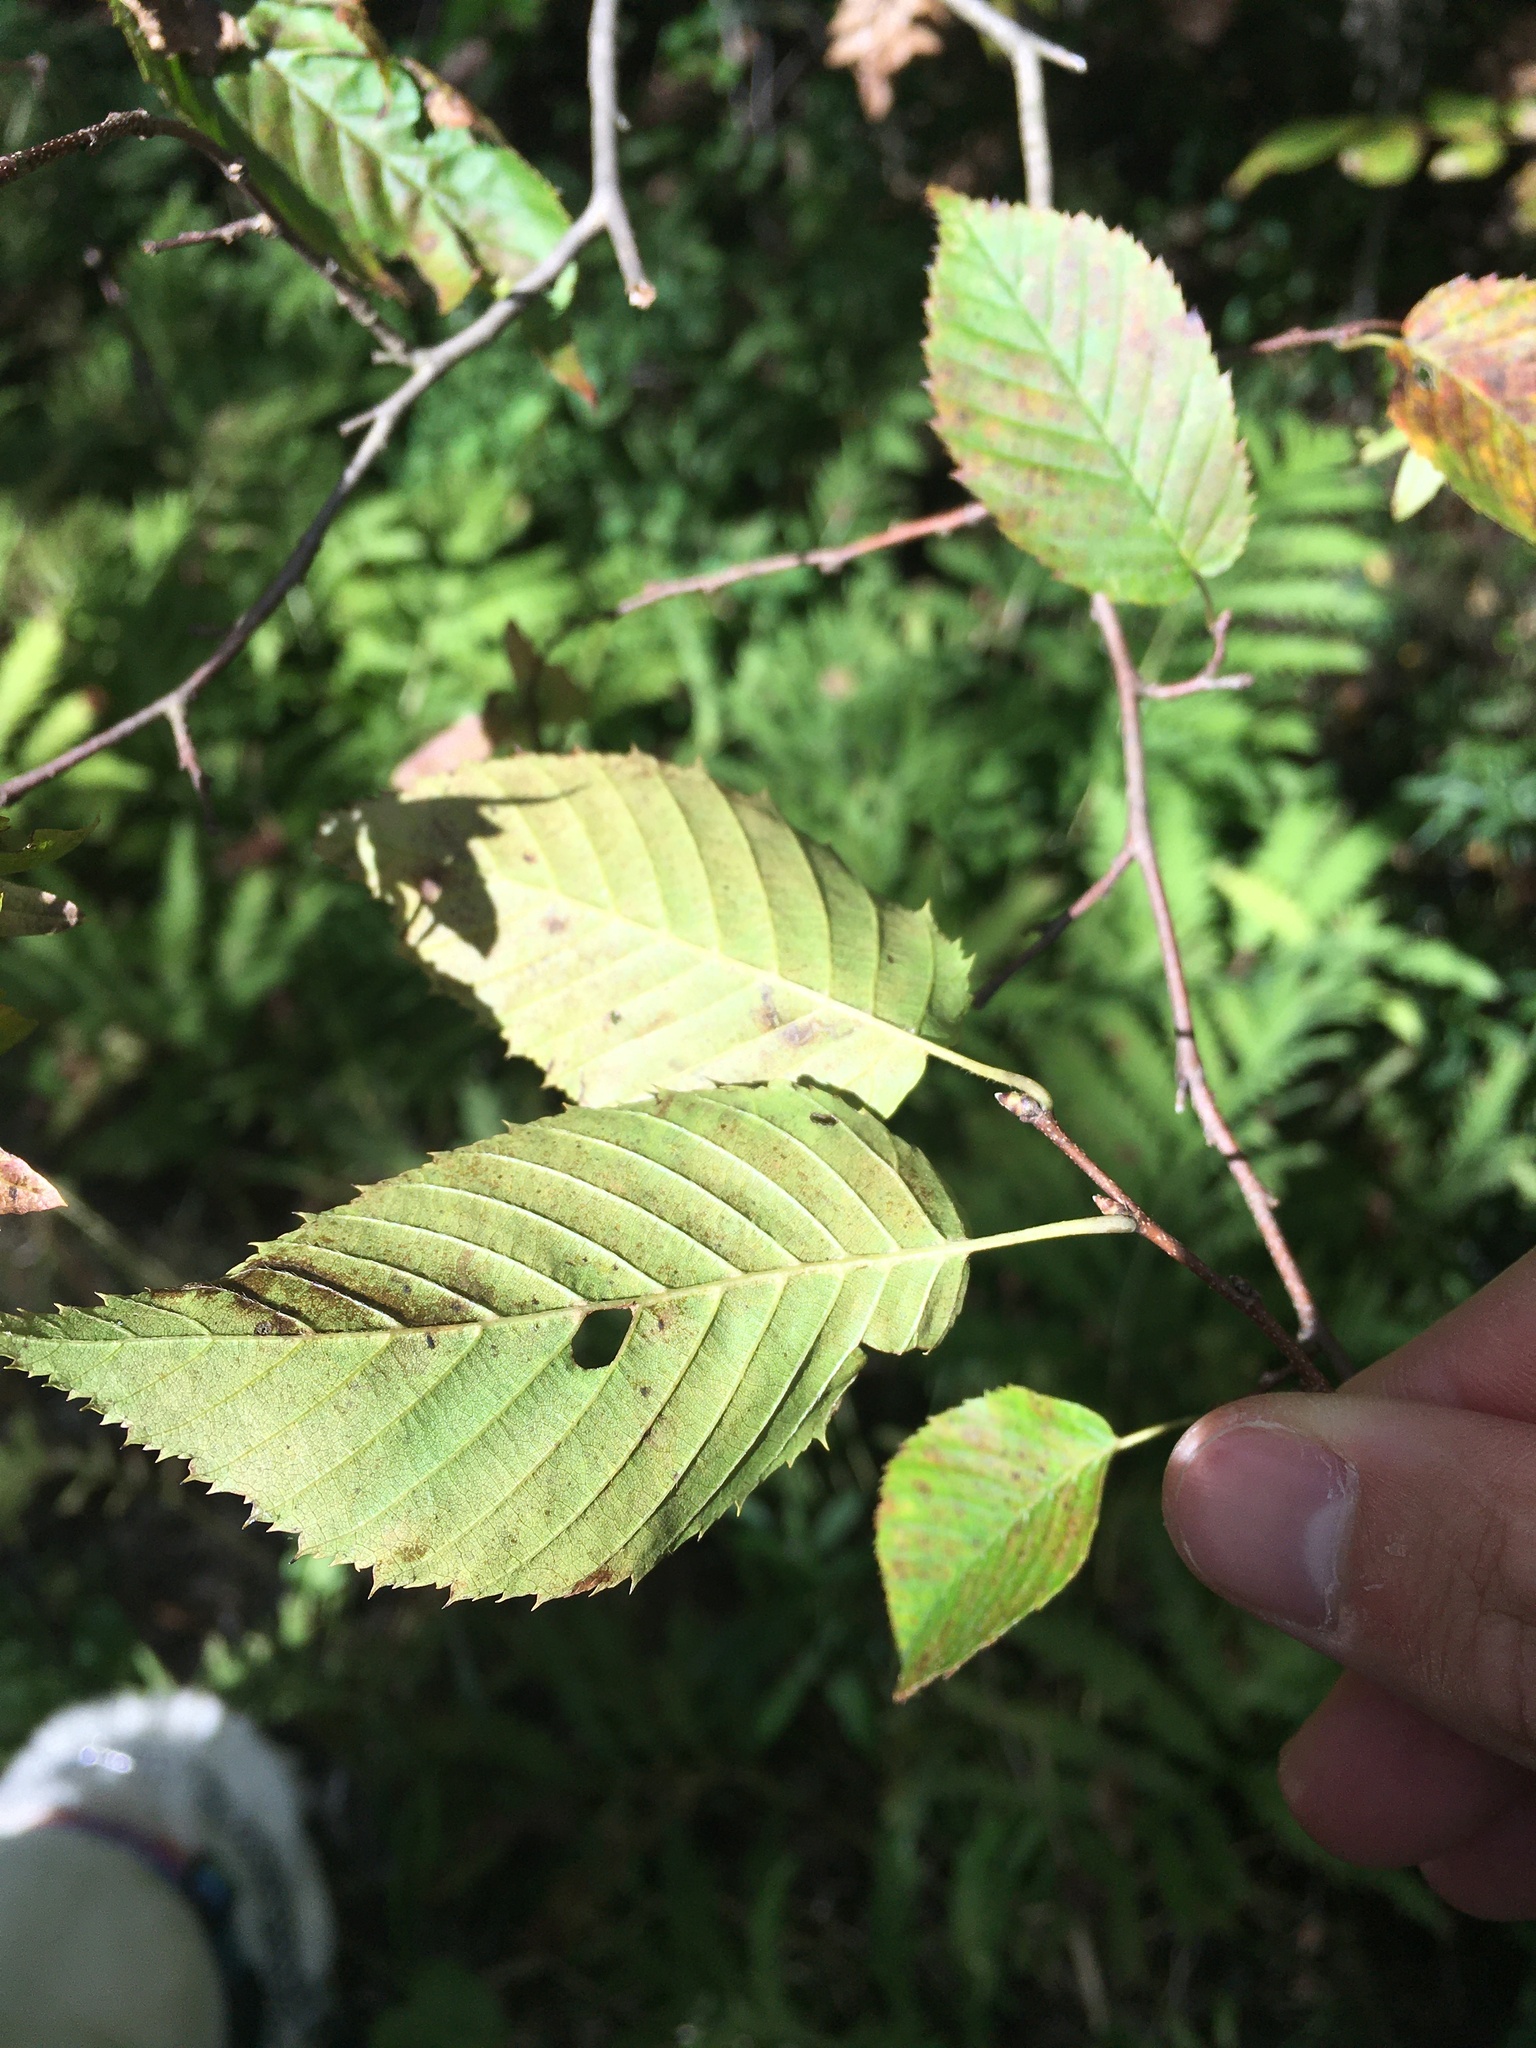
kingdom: Plantae
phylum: Tracheophyta
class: Magnoliopsida
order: Fagales
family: Betulaceae
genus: Carpinus
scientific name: Carpinus caroliniana
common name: American hornbeam
